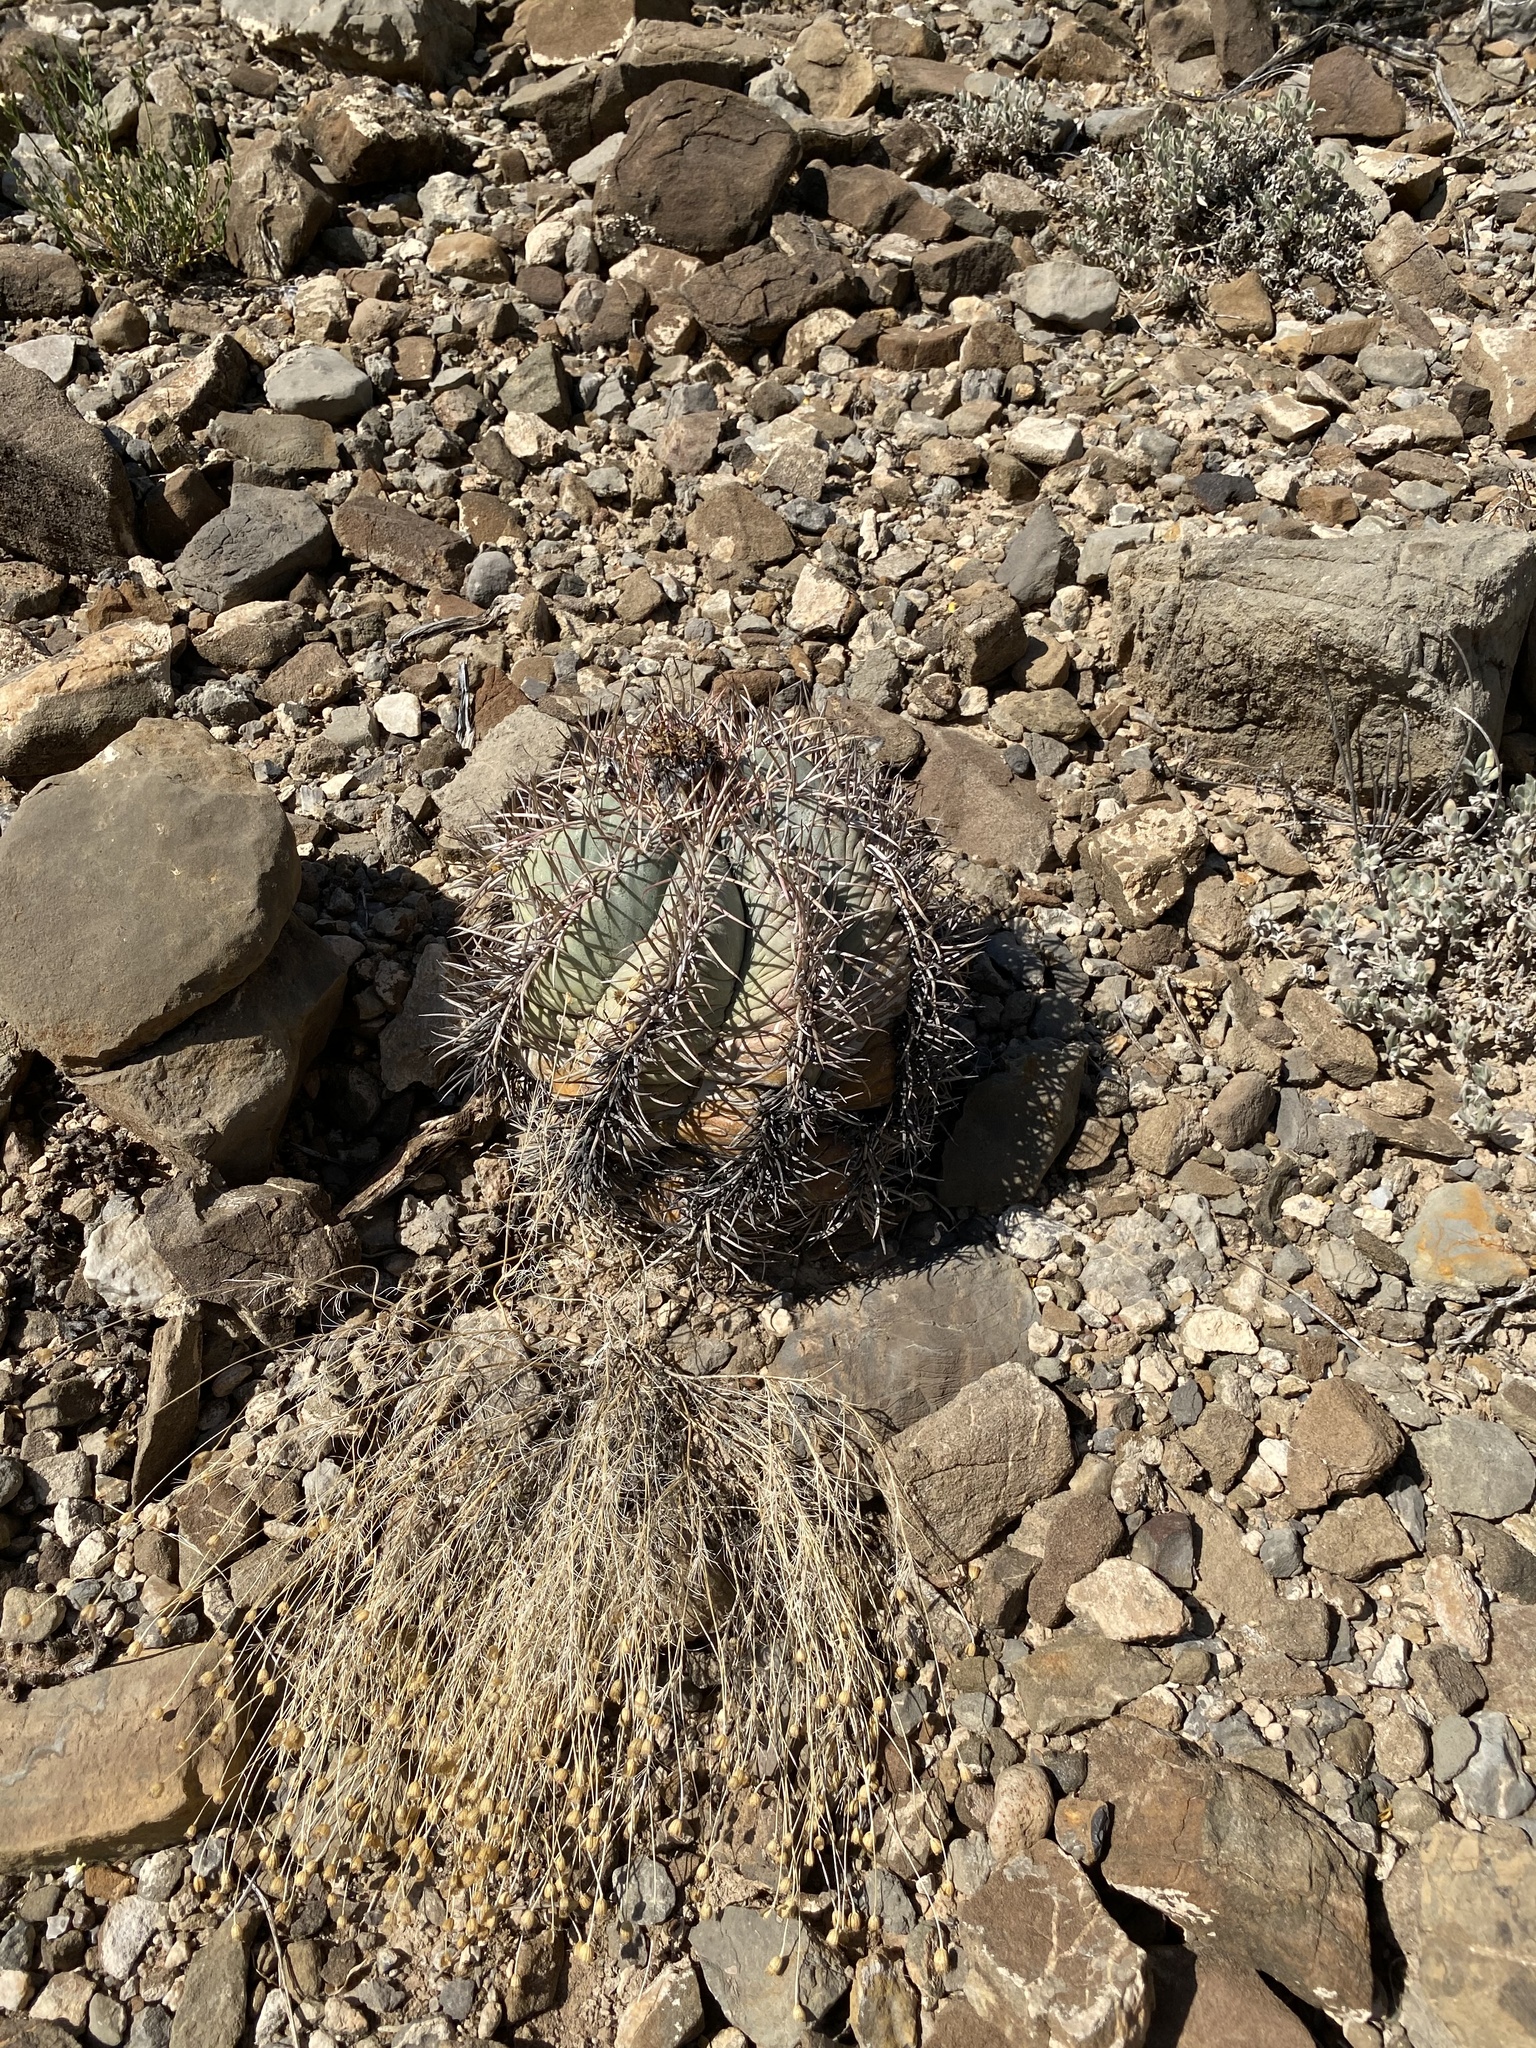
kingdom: Plantae
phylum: Tracheophyta
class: Magnoliopsida
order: Caryophyllales
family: Cactaceae
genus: Echinocactus
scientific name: Echinocactus horizonthalonius
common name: Devilshead
